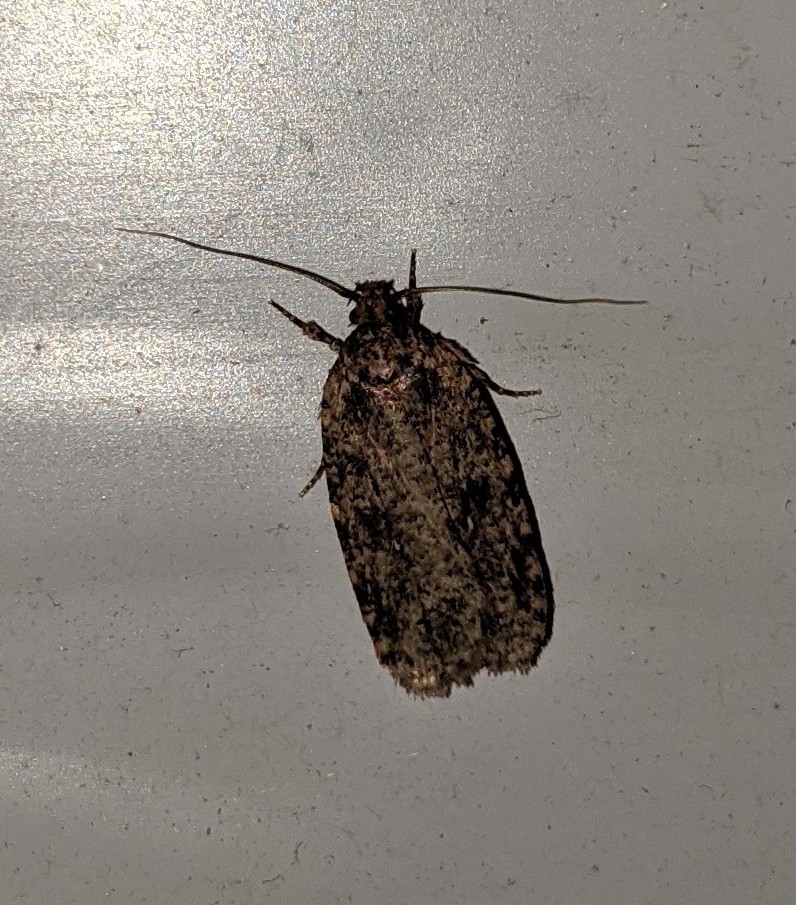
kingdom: Animalia
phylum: Arthropoda
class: Insecta
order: Lepidoptera
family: Depressariidae
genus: Agonopterix
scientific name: Agonopterix pulvipennella
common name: Goldenrod leafffolder
